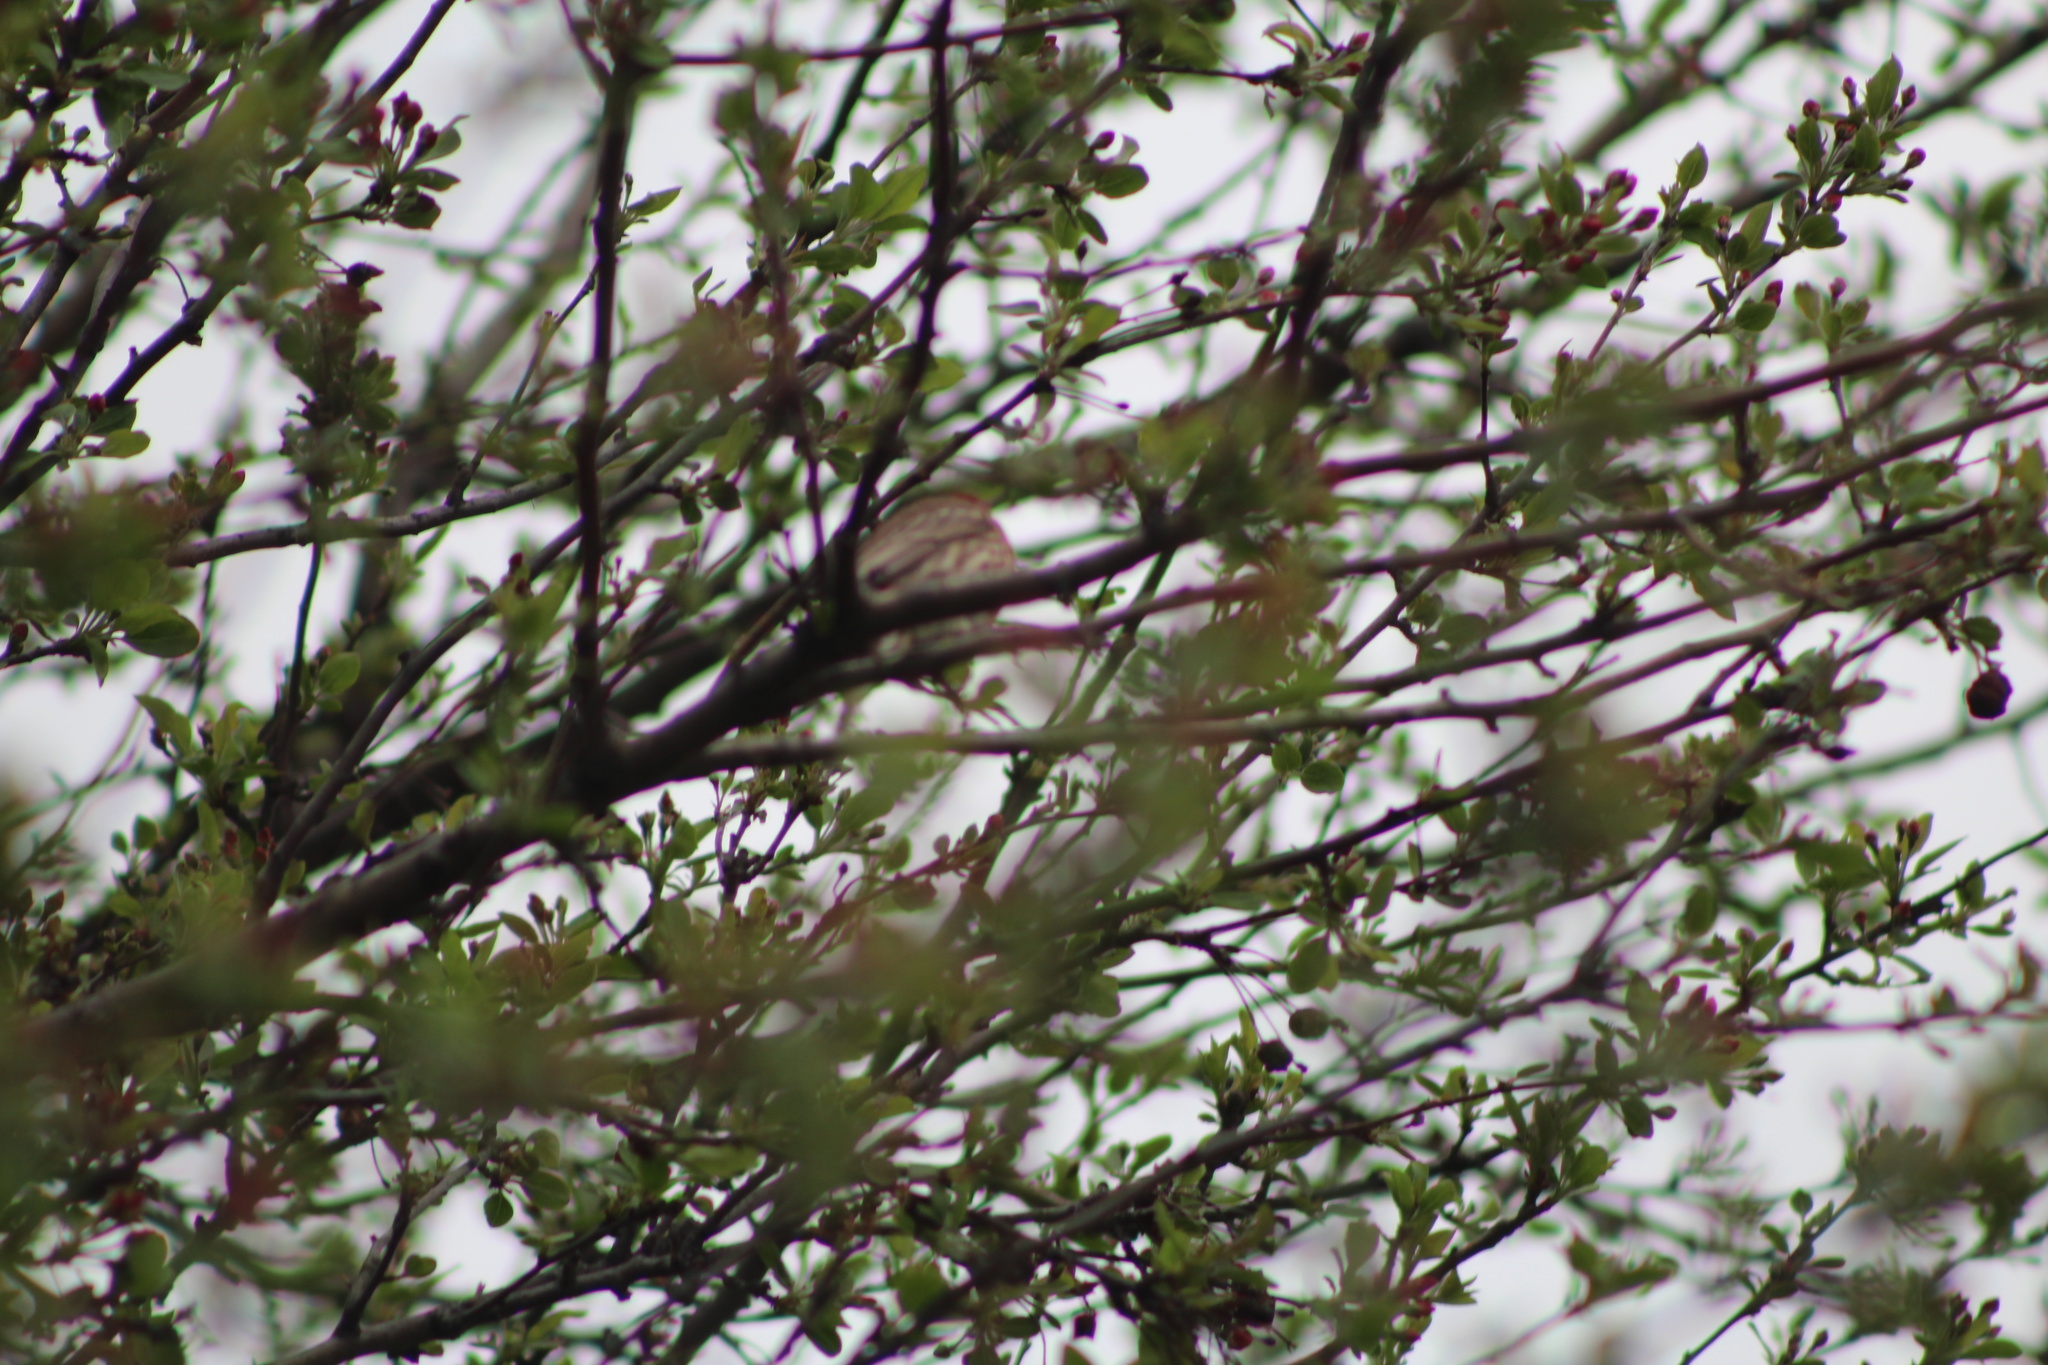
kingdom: Animalia
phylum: Chordata
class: Aves
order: Passeriformes
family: Fringillidae
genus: Haemorhous
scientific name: Haemorhous mexicanus
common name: House finch
